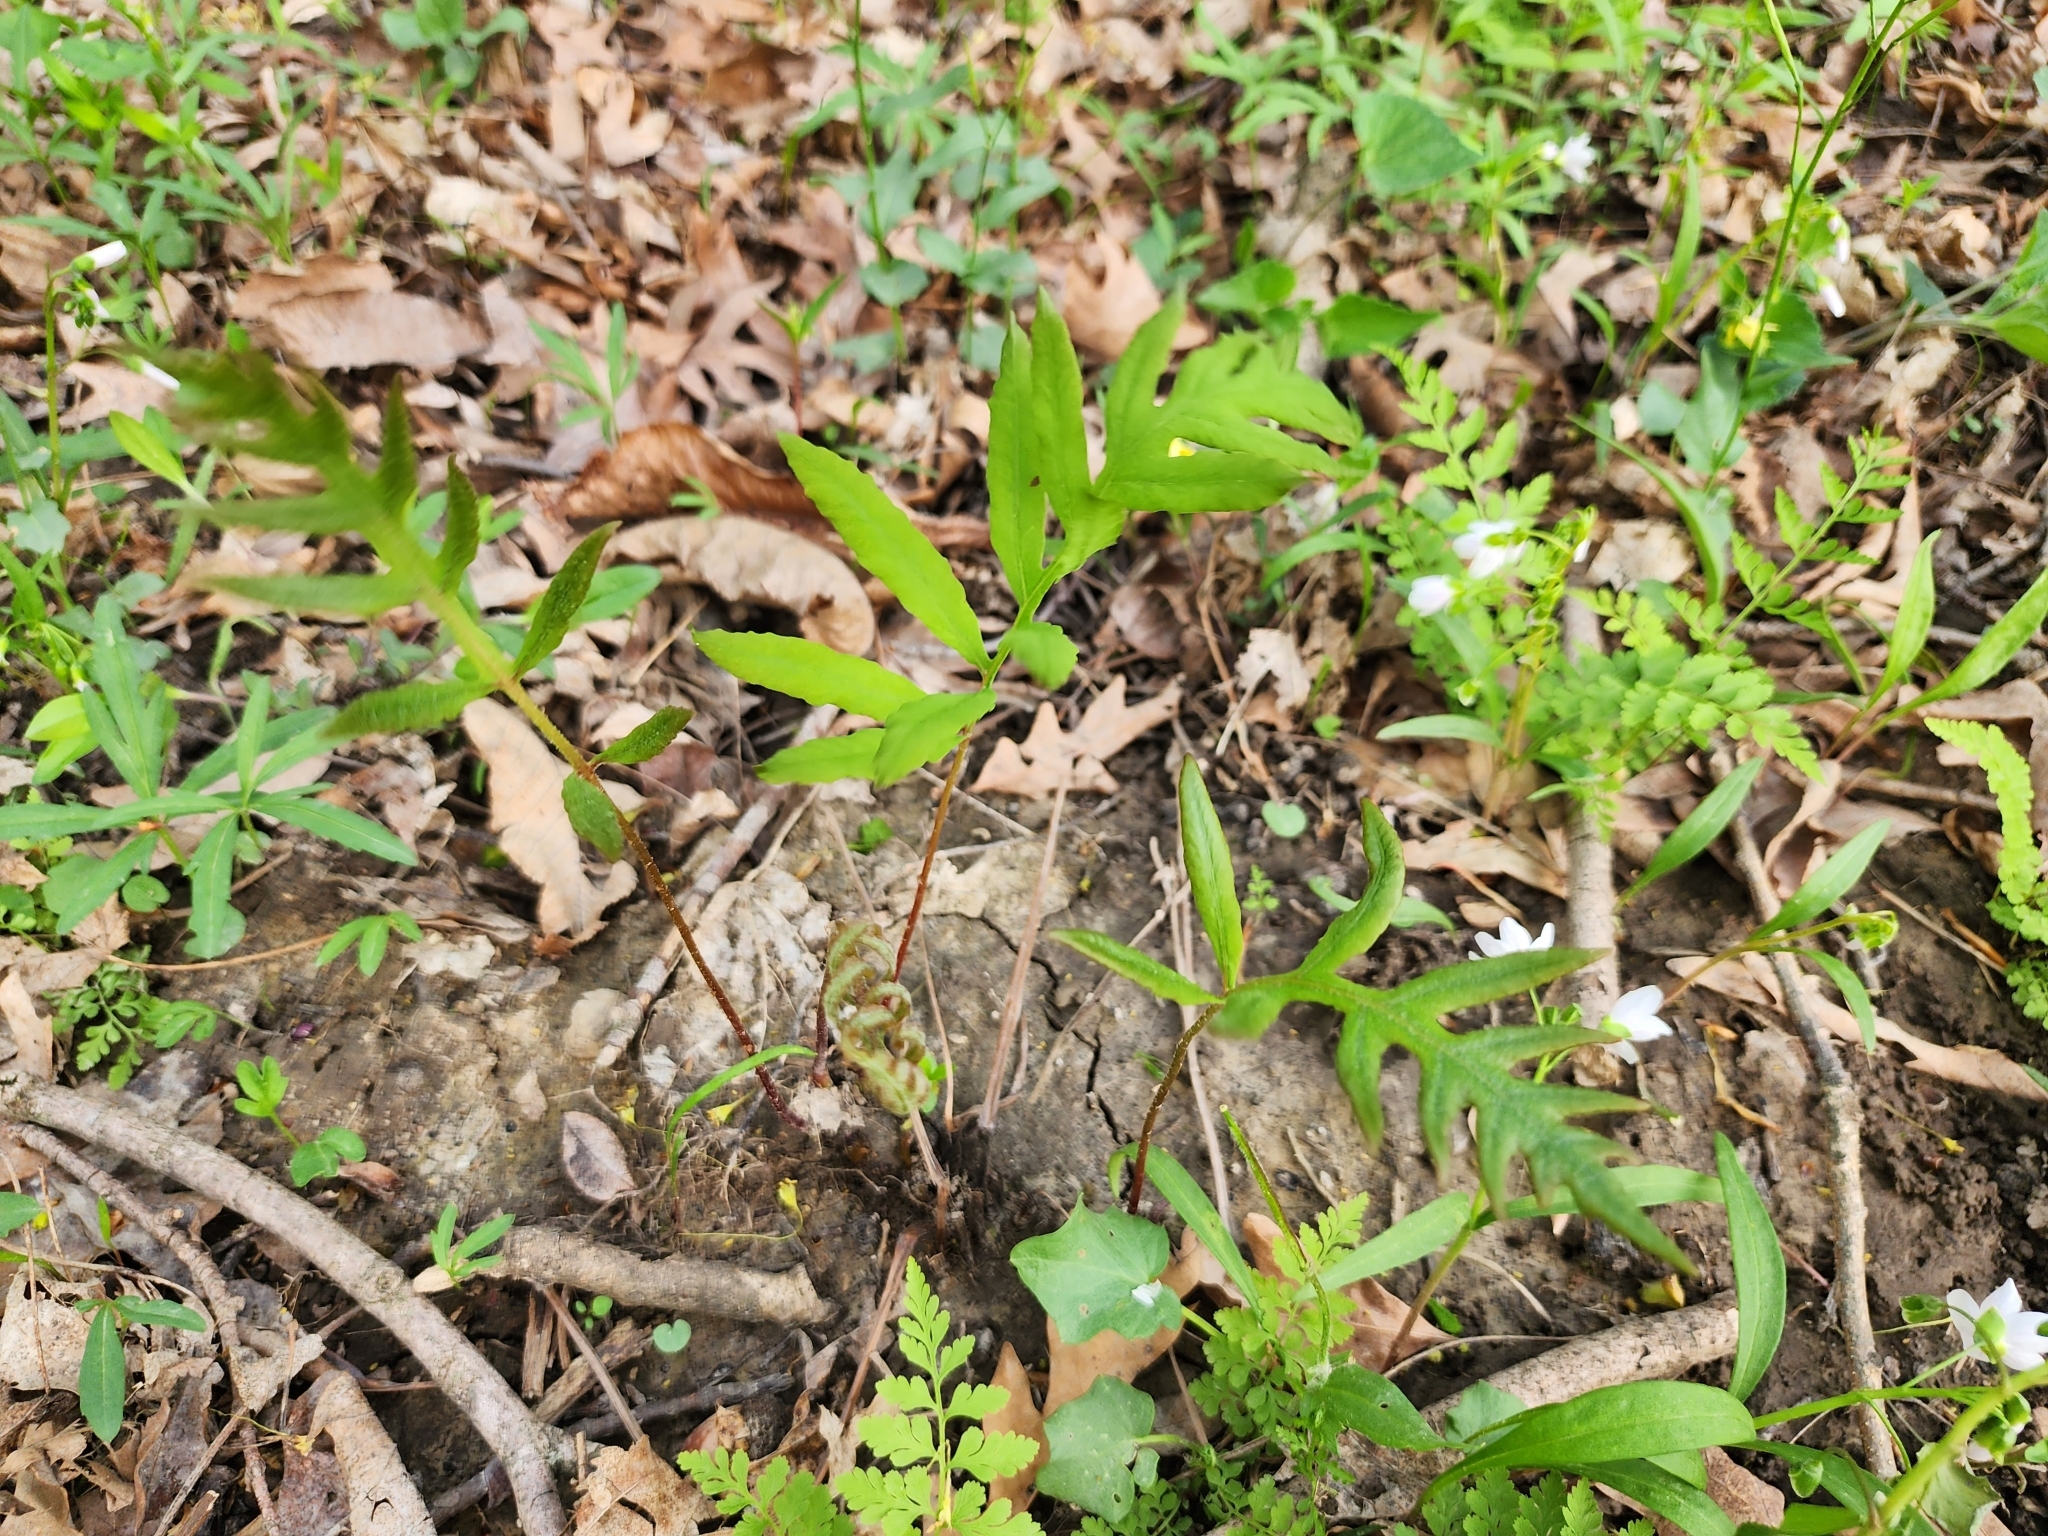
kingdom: Plantae
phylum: Tracheophyta
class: Polypodiopsida
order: Polypodiales
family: Onocleaceae
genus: Onoclea
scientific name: Onoclea sensibilis
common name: Sensitive fern
